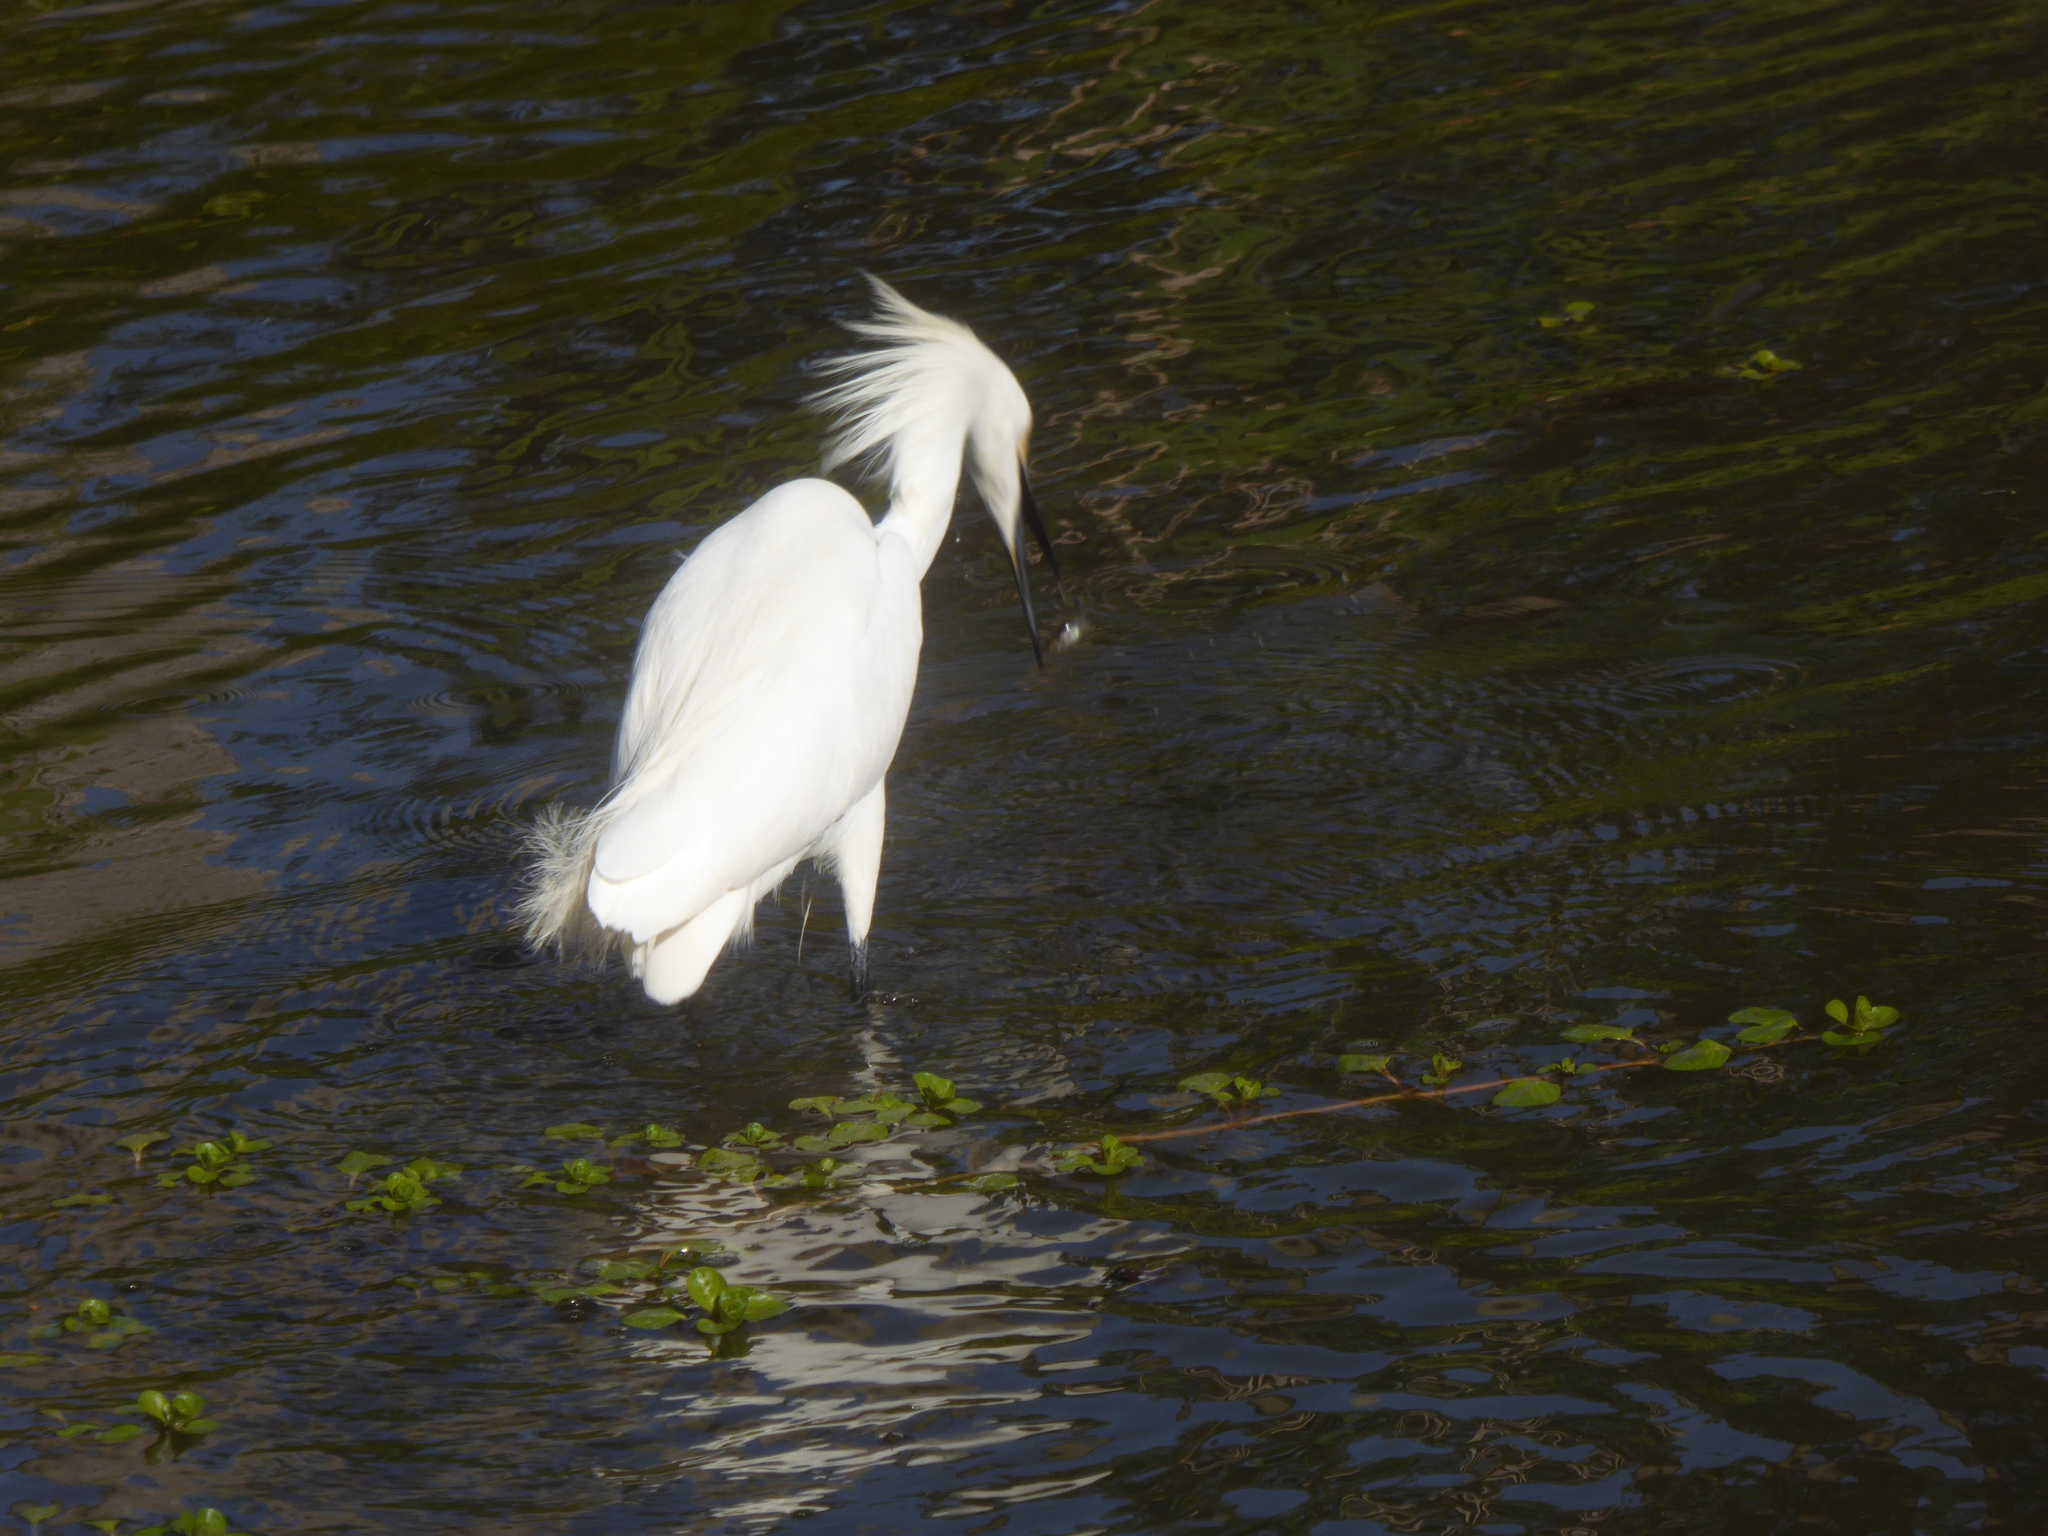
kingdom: Animalia
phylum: Chordata
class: Aves
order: Pelecaniformes
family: Ardeidae
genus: Egretta
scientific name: Egretta thula
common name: Snowy egret
